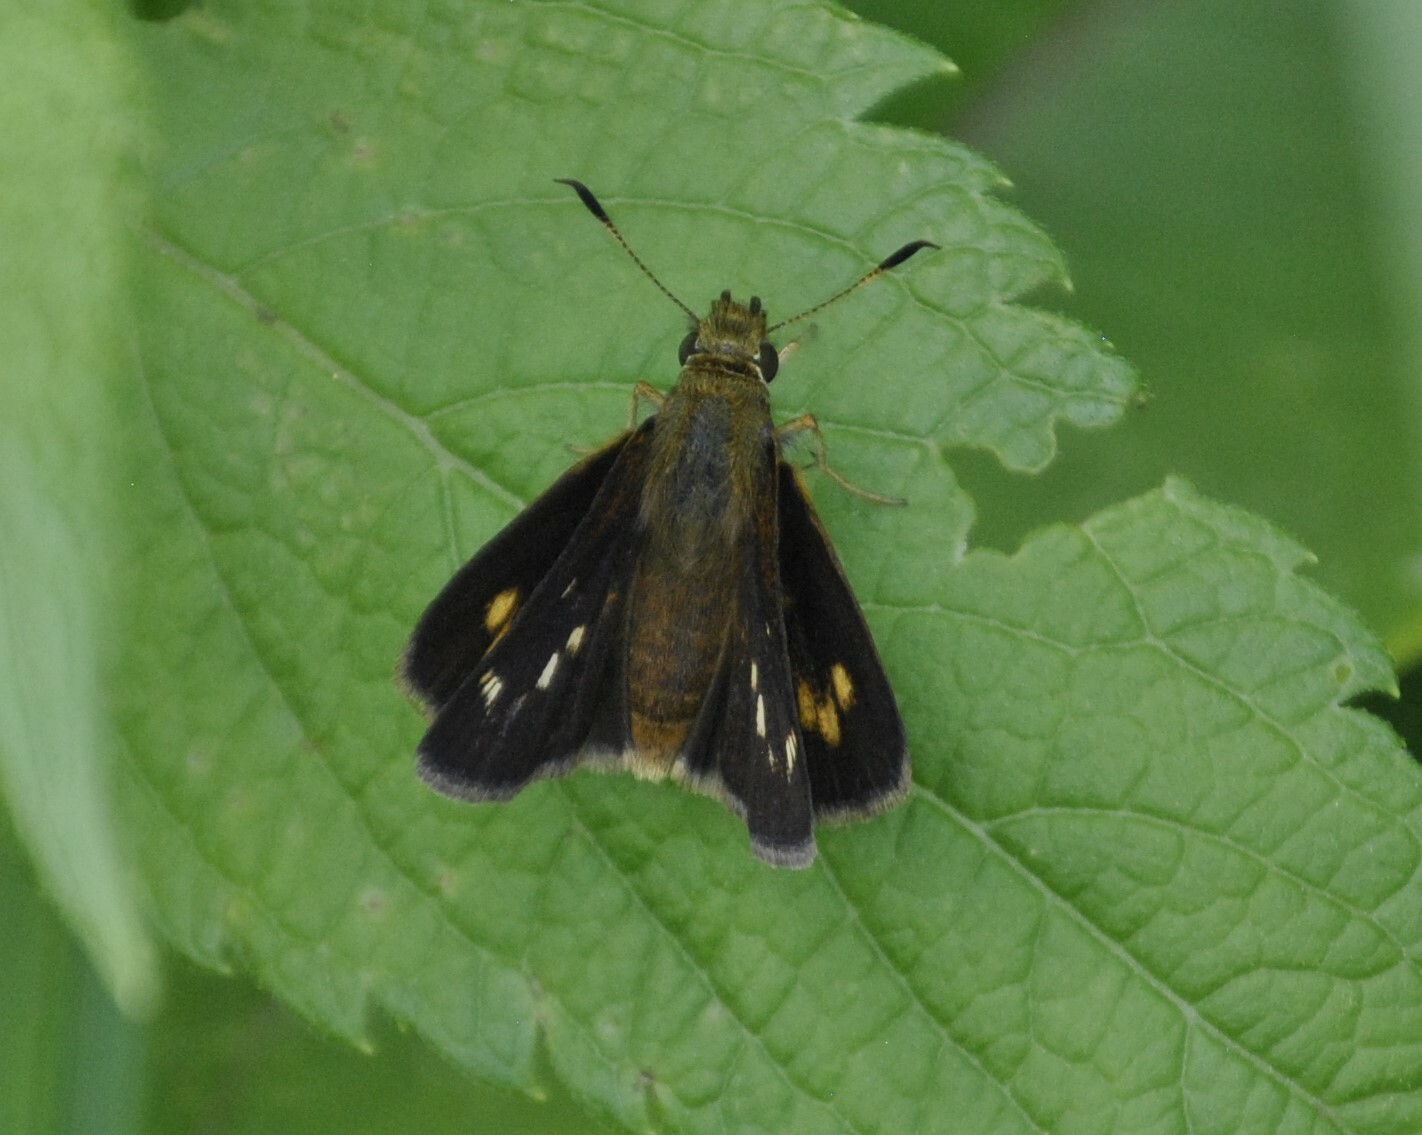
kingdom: Animalia
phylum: Arthropoda
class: Insecta
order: Lepidoptera
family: Hesperiidae
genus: Poanes
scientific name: Poanes massasoit
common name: Mulberrywing
